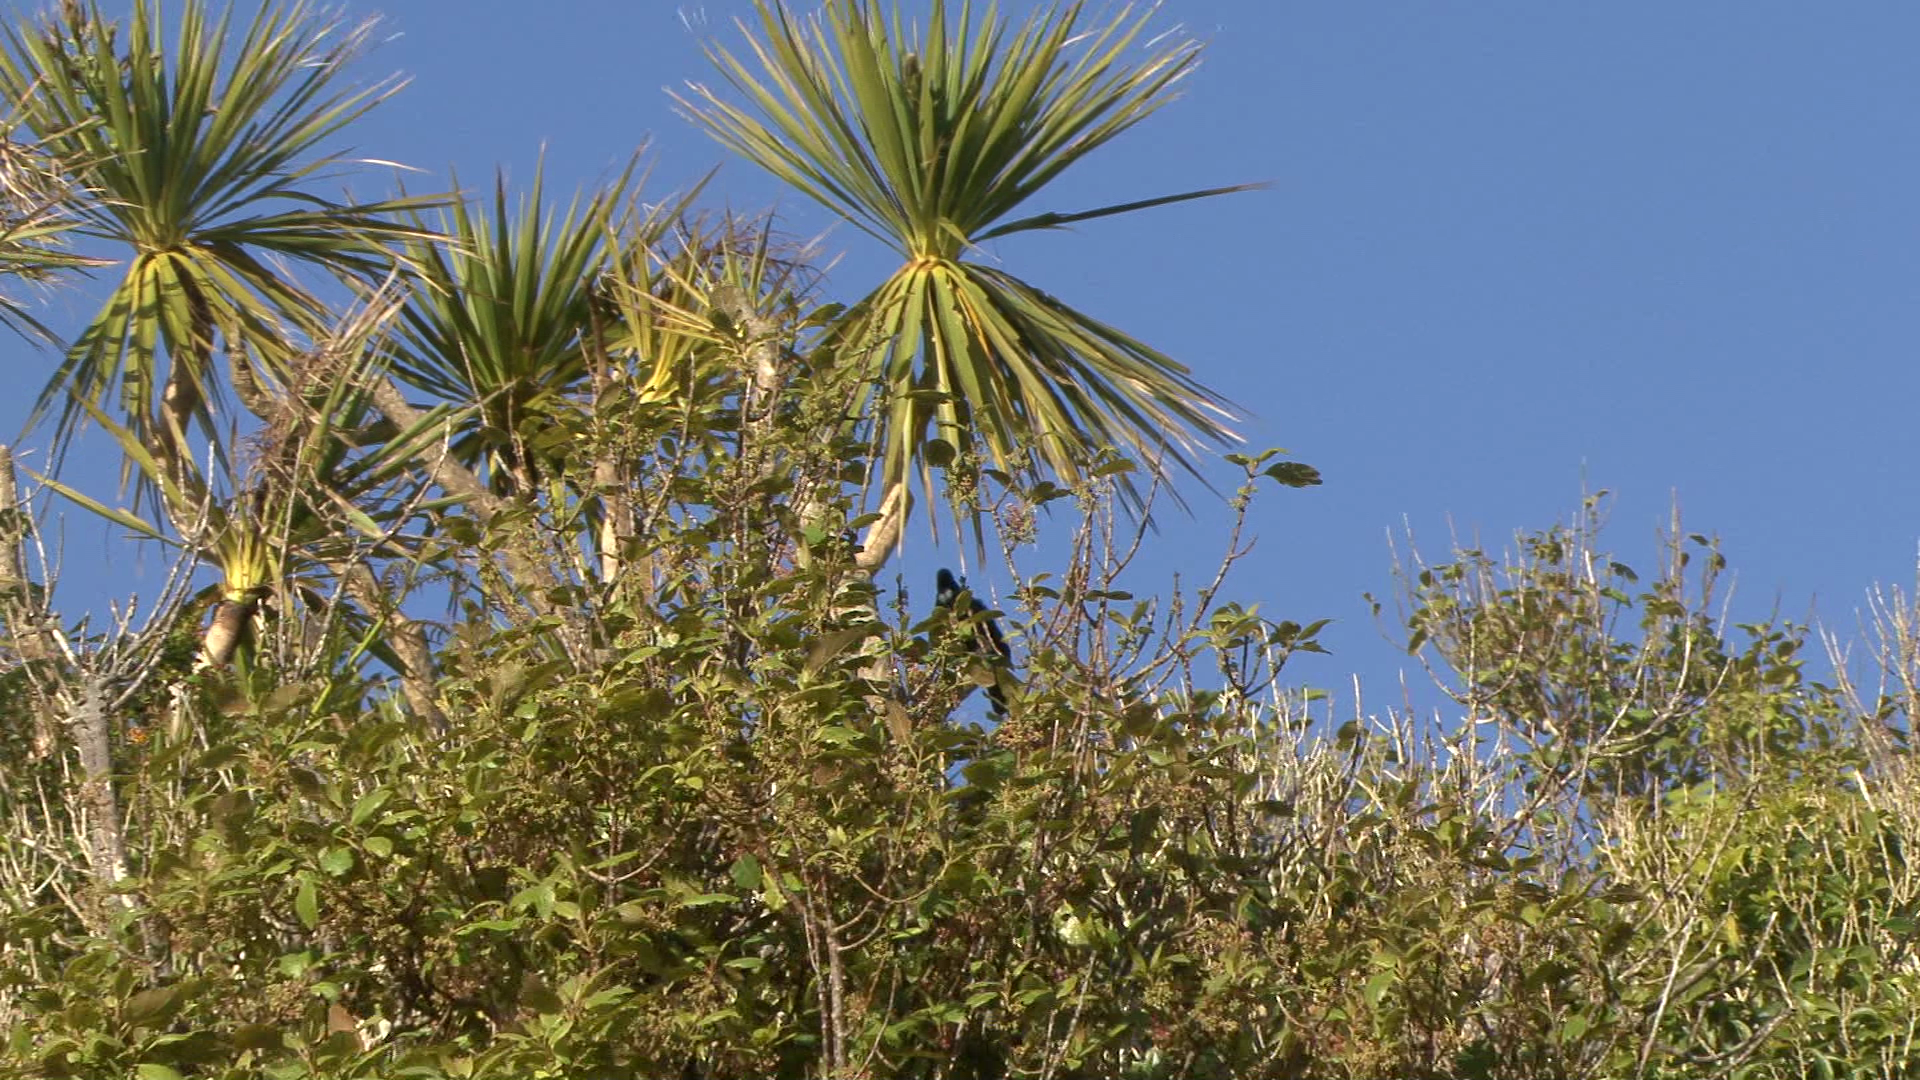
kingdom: Animalia
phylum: Chordata
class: Aves
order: Passeriformes
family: Meliphagidae
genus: Prosthemadera
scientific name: Prosthemadera novaeseelandiae
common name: Tui
